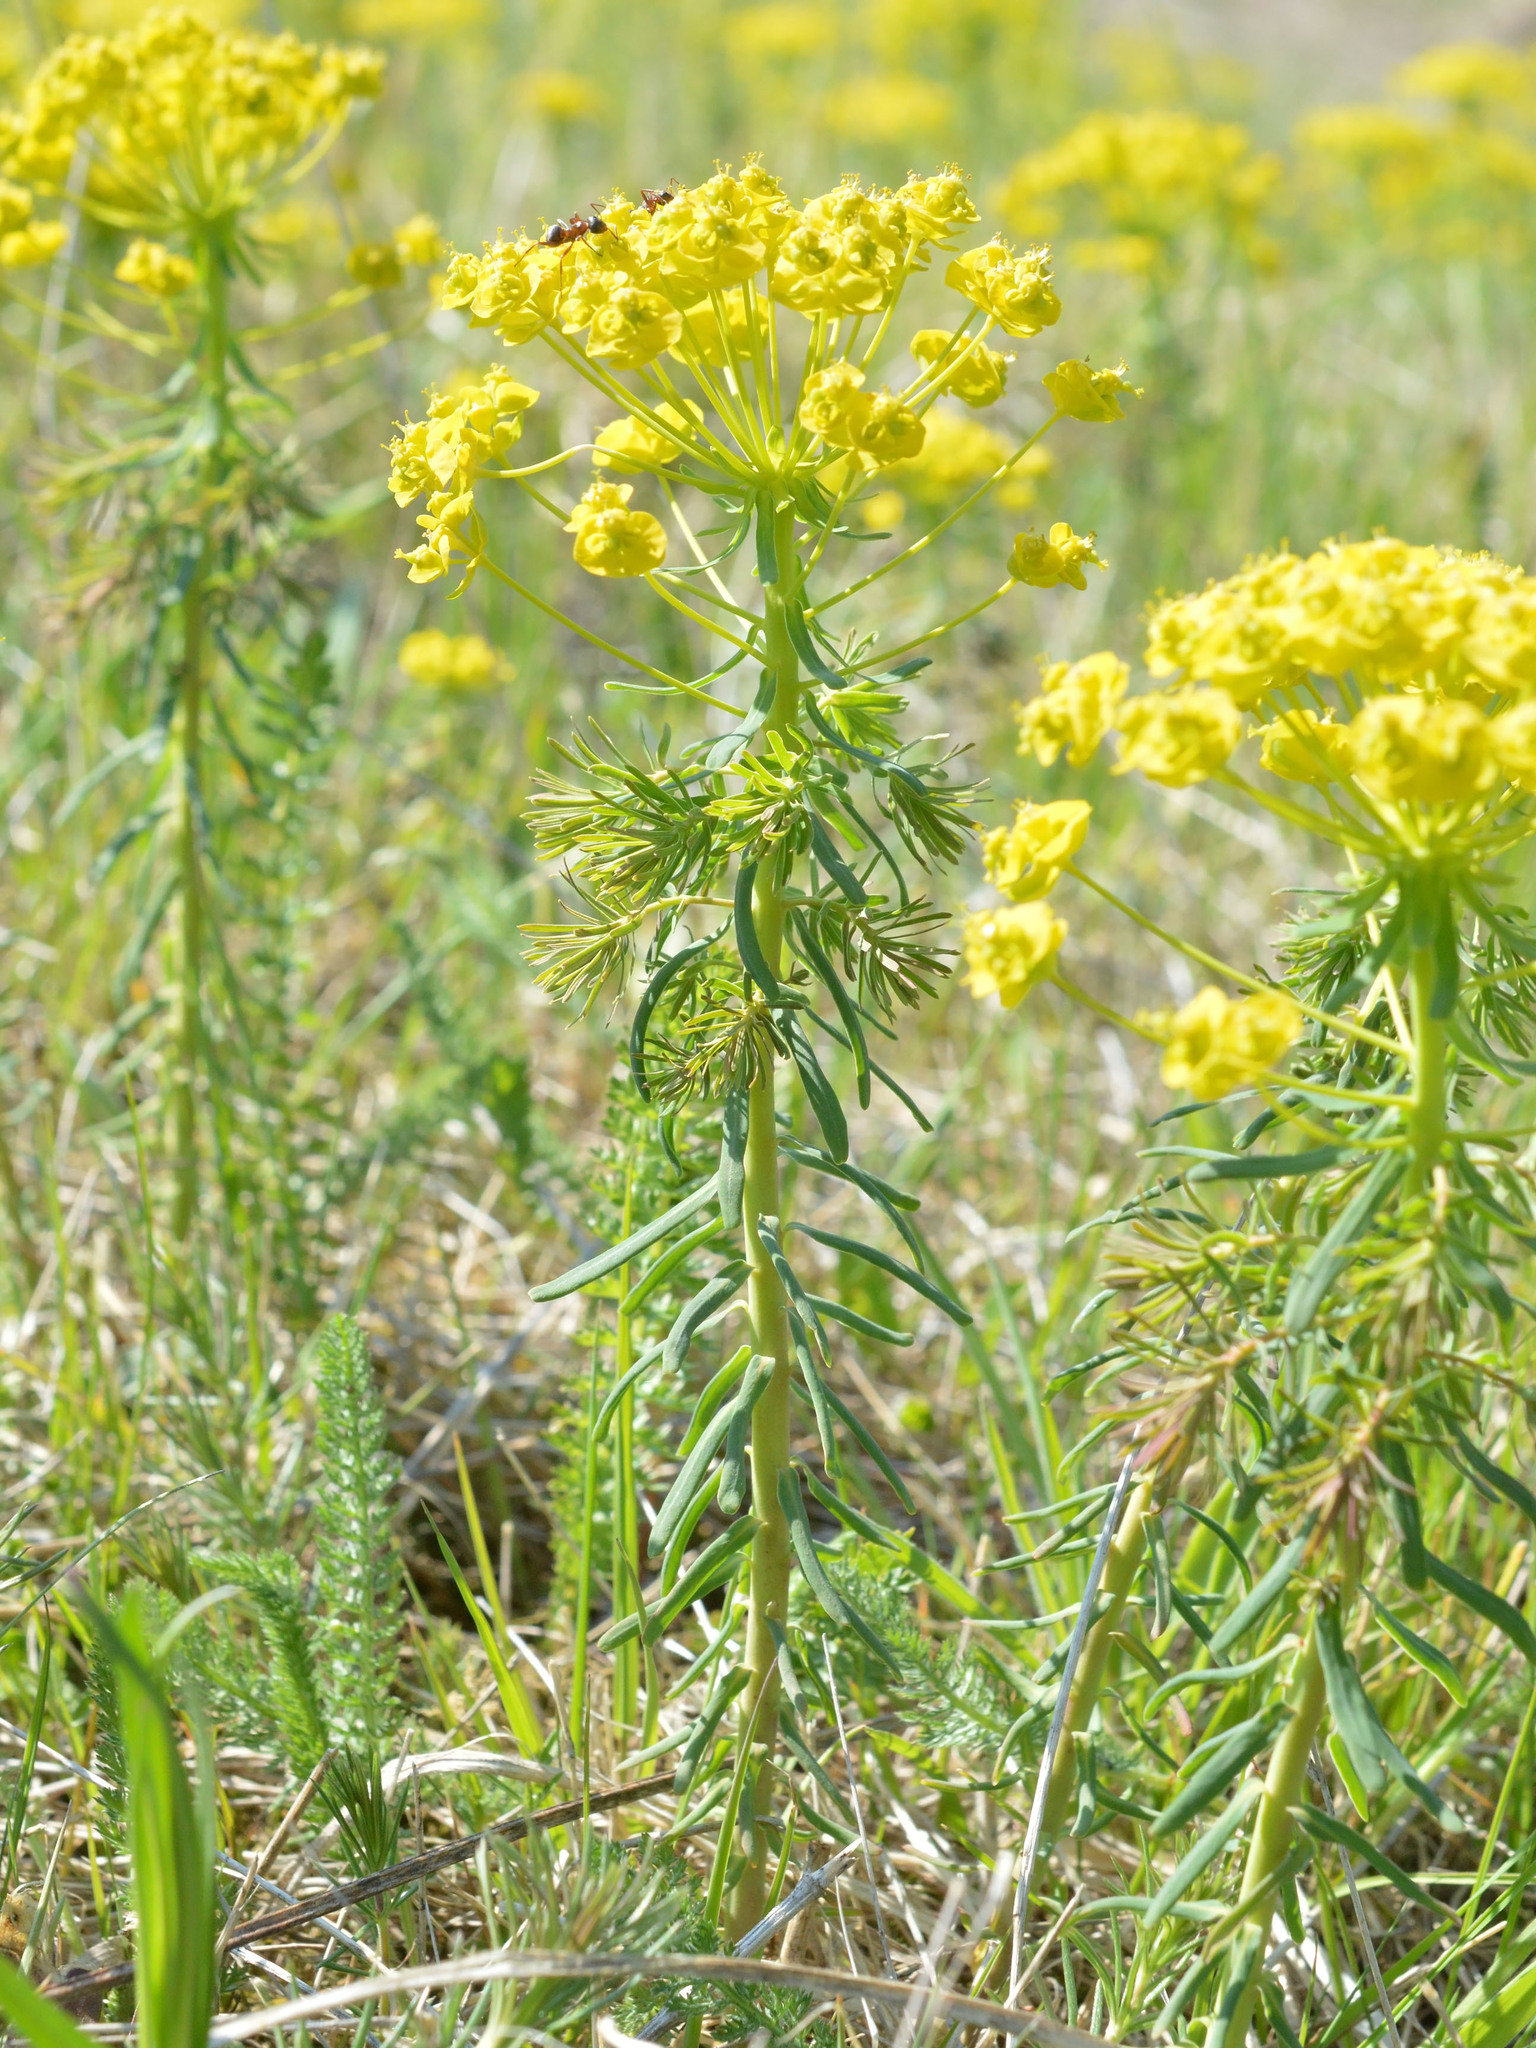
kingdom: Plantae
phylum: Tracheophyta
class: Magnoliopsida
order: Malpighiales
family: Euphorbiaceae
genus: Euphorbia
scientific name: Euphorbia cyparissias
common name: Cypress spurge
